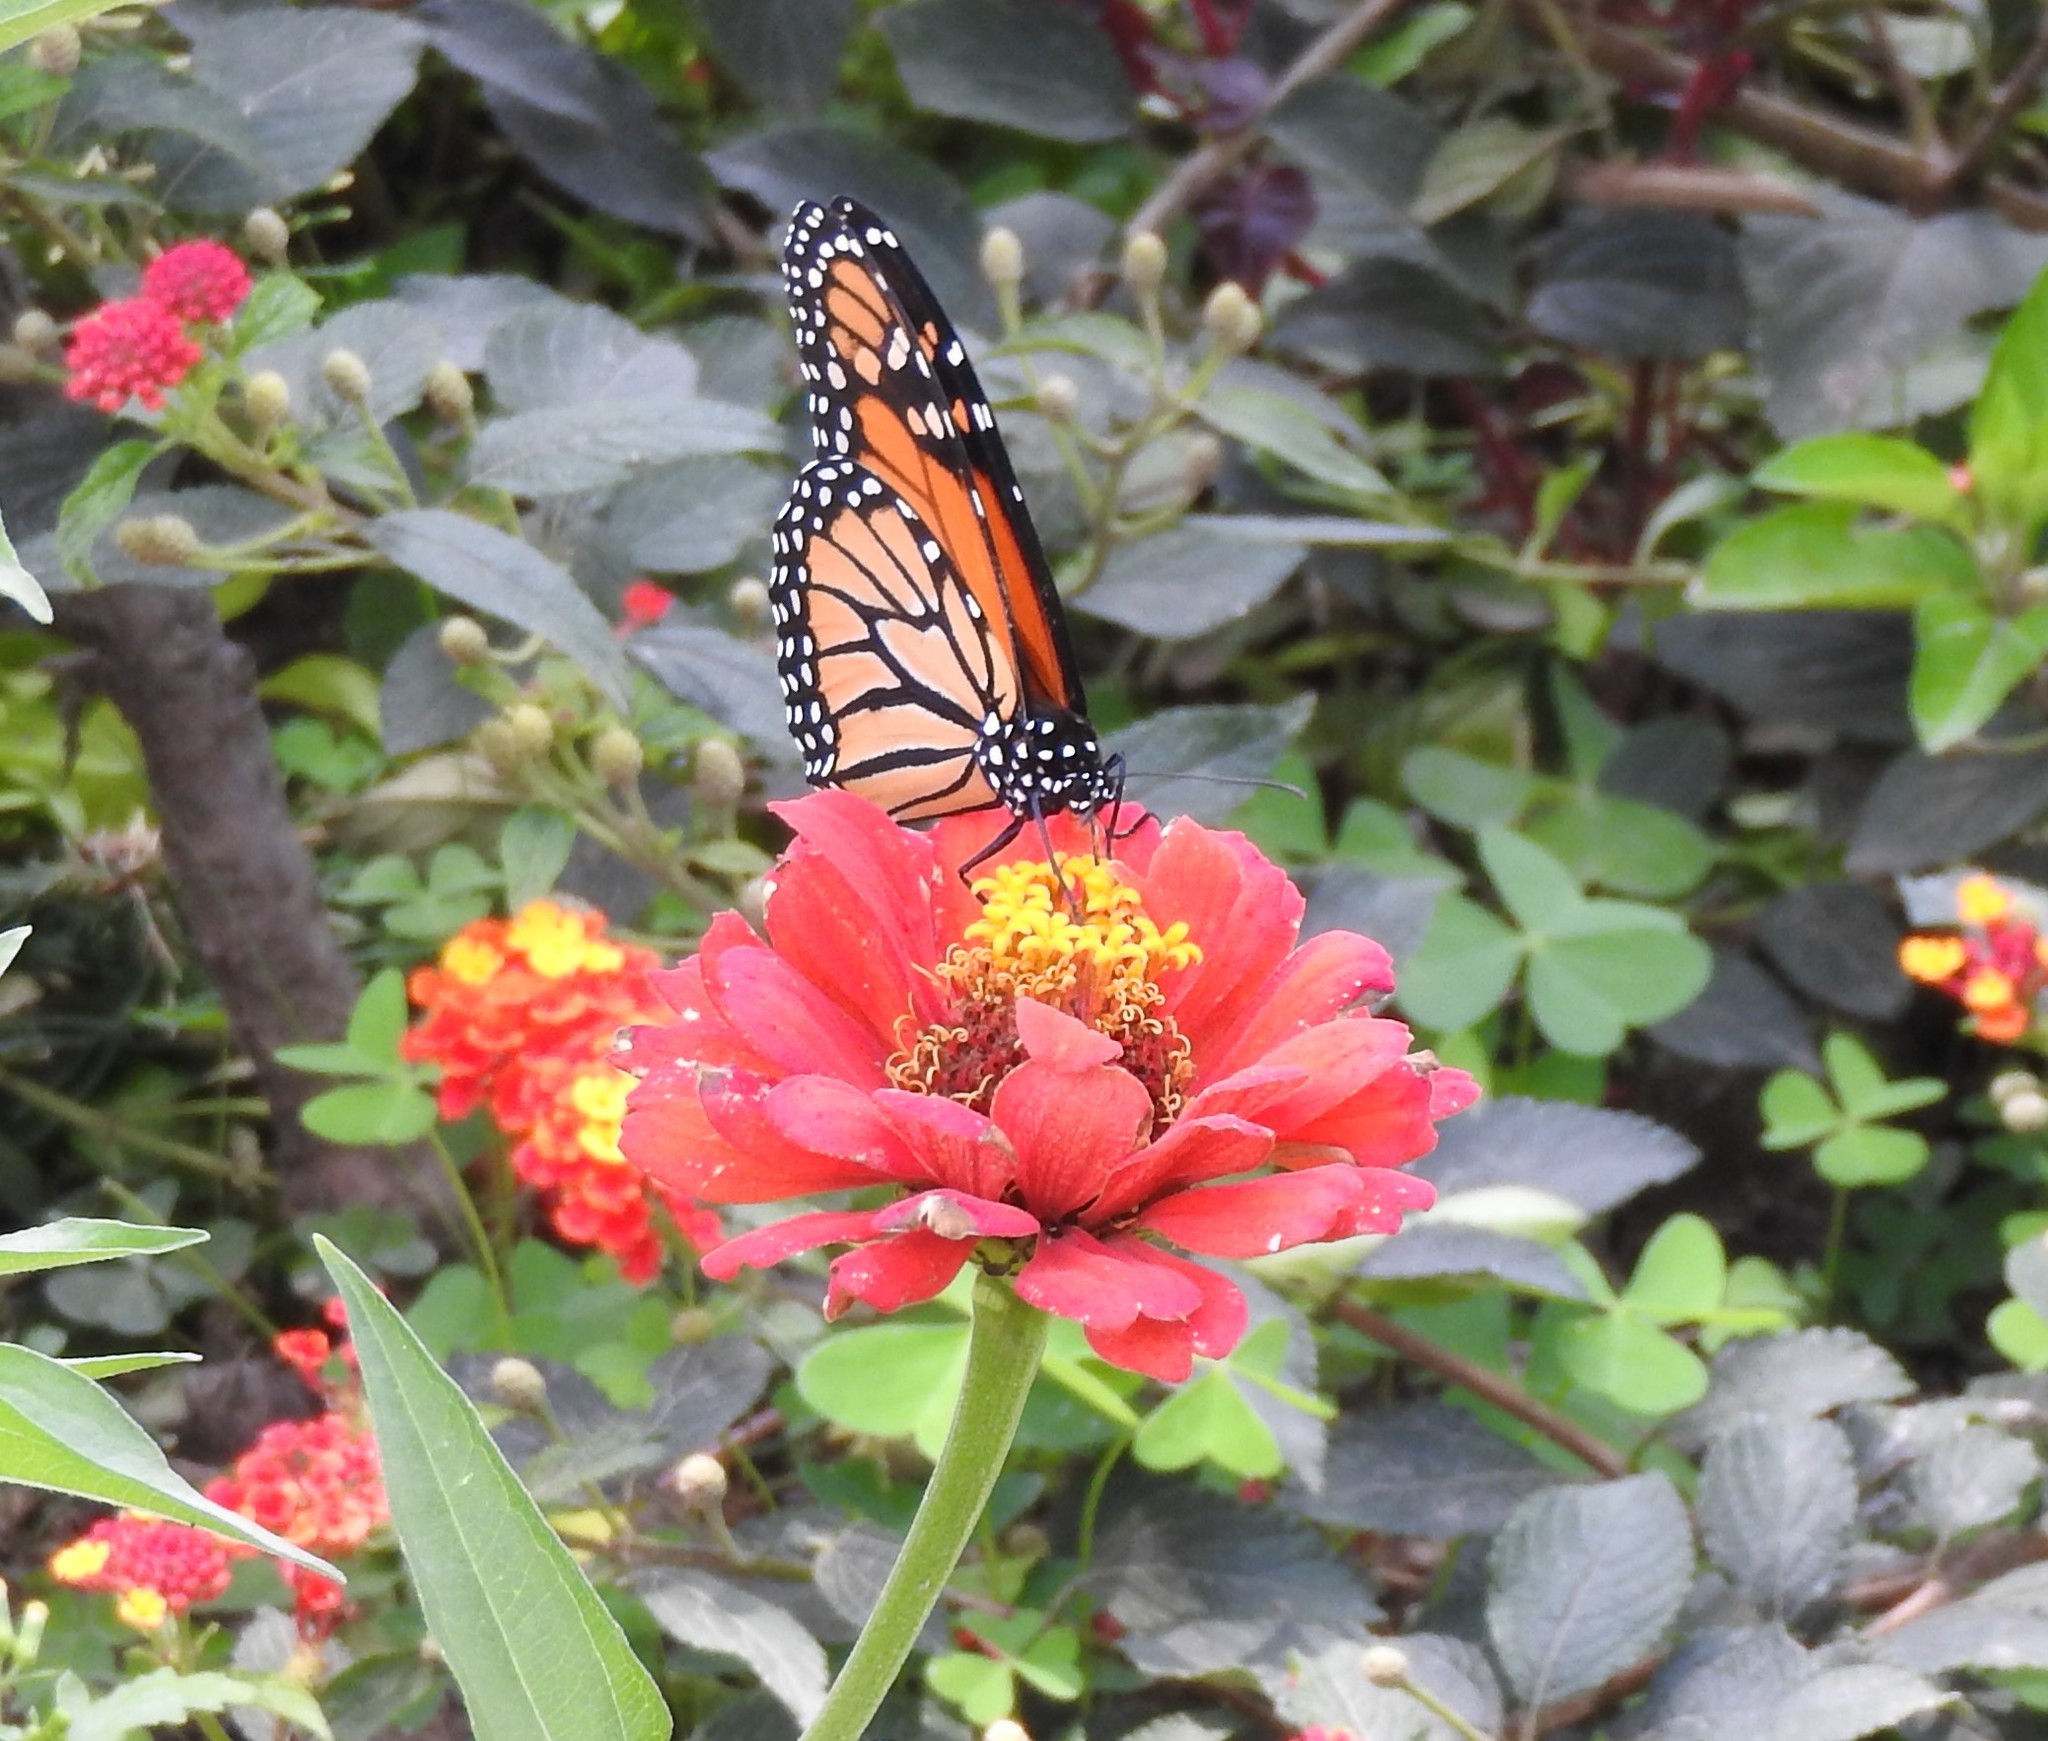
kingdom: Animalia
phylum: Arthropoda
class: Insecta
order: Lepidoptera
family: Nymphalidae
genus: Danaus
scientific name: Danaus plexippus
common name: Monarch
